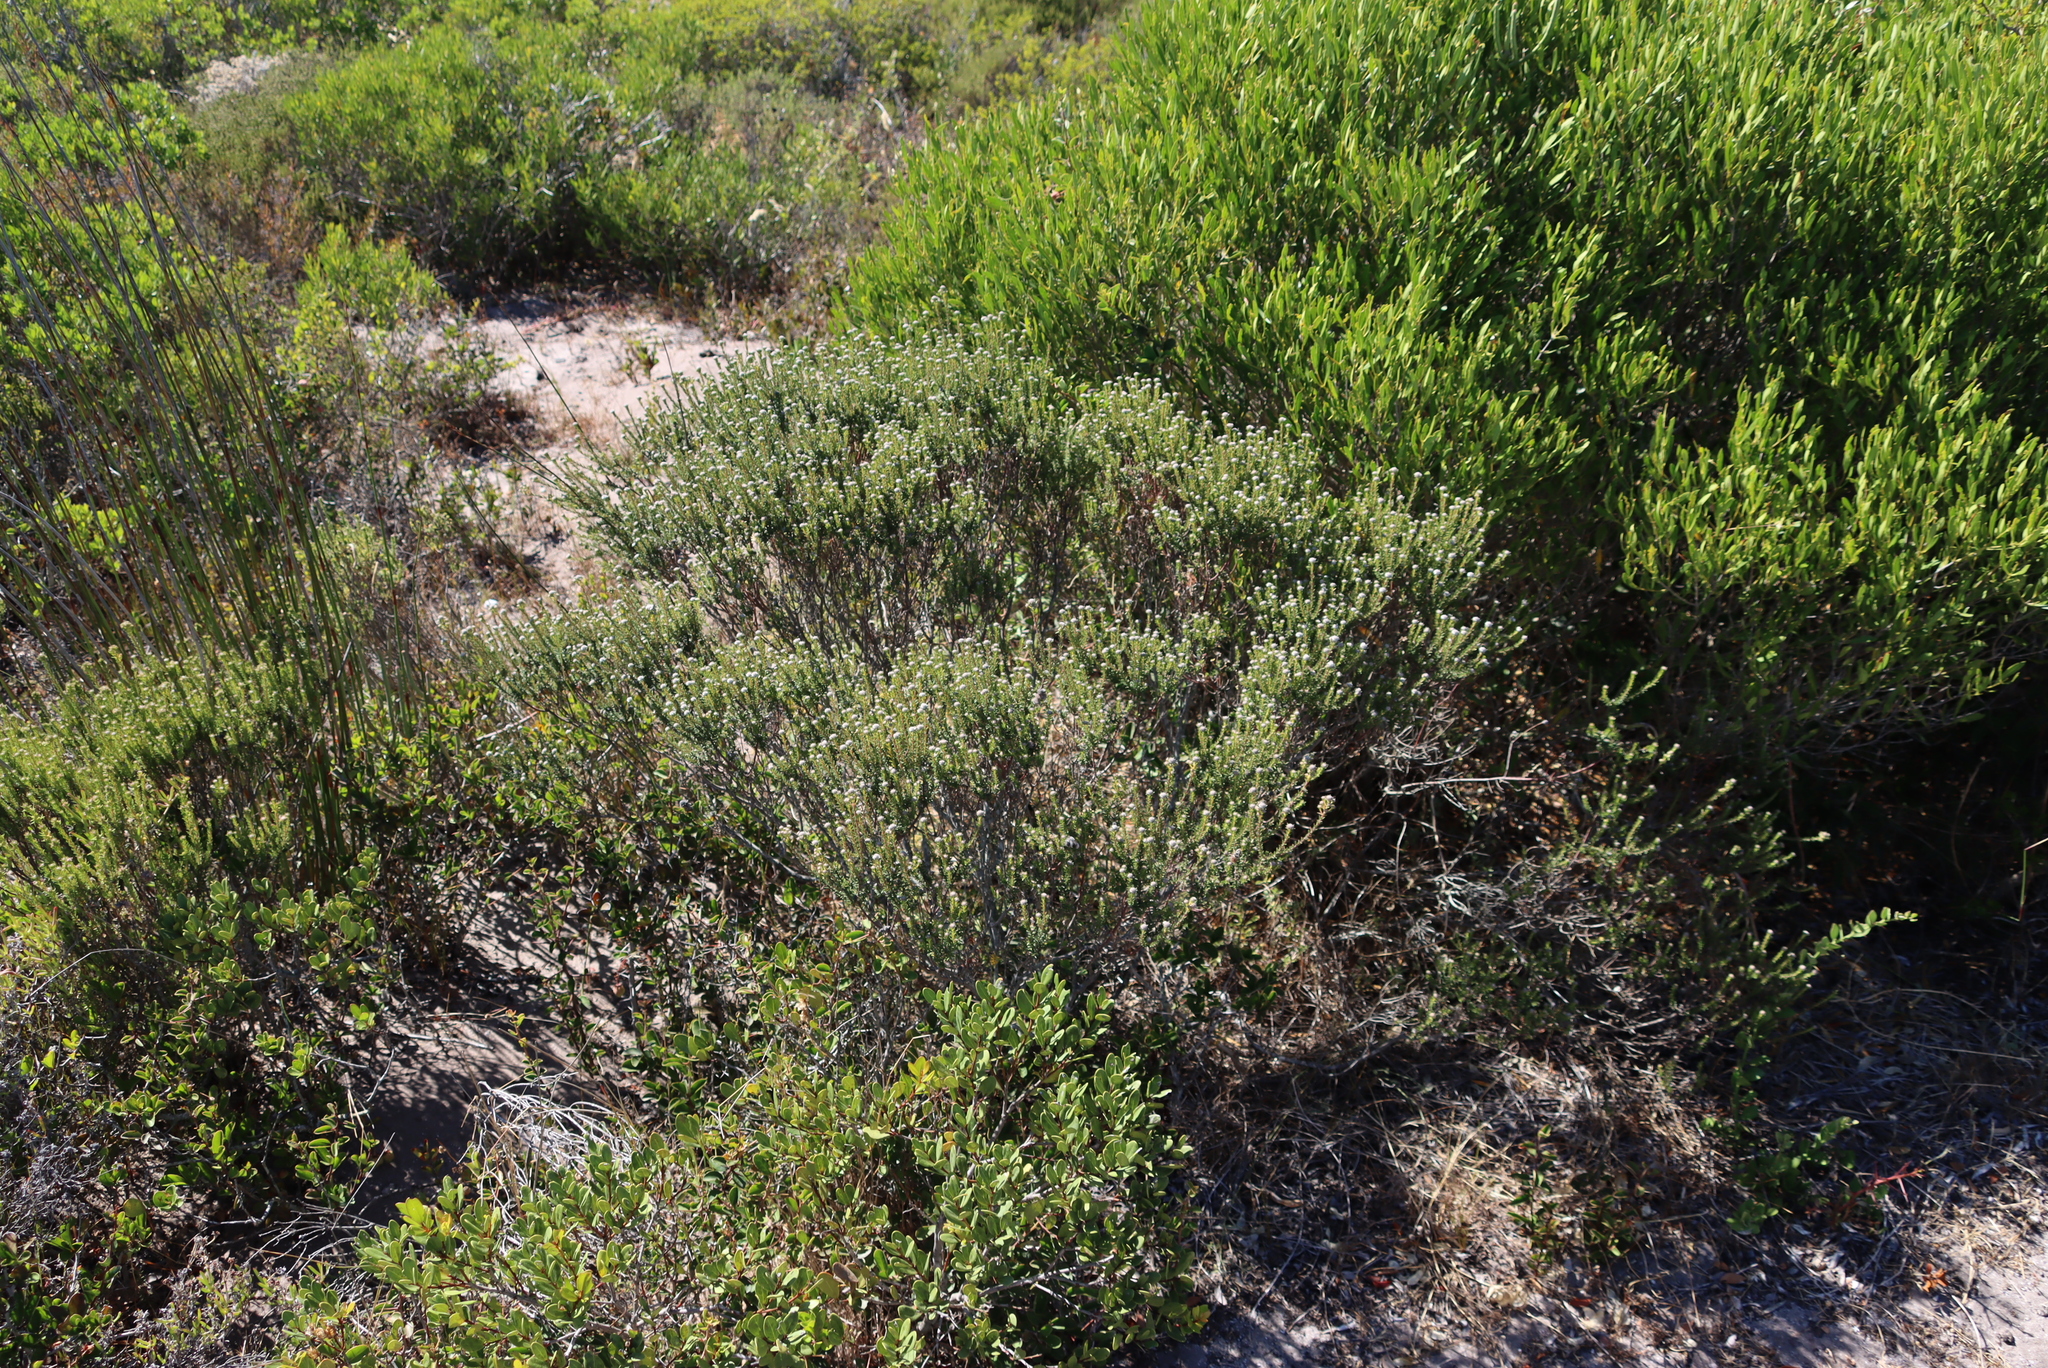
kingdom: Plantae
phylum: Tracheophyta
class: Magnoliopsida
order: Rosales
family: Rhamnaceae
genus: Phylica
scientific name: Phylica ericoides
